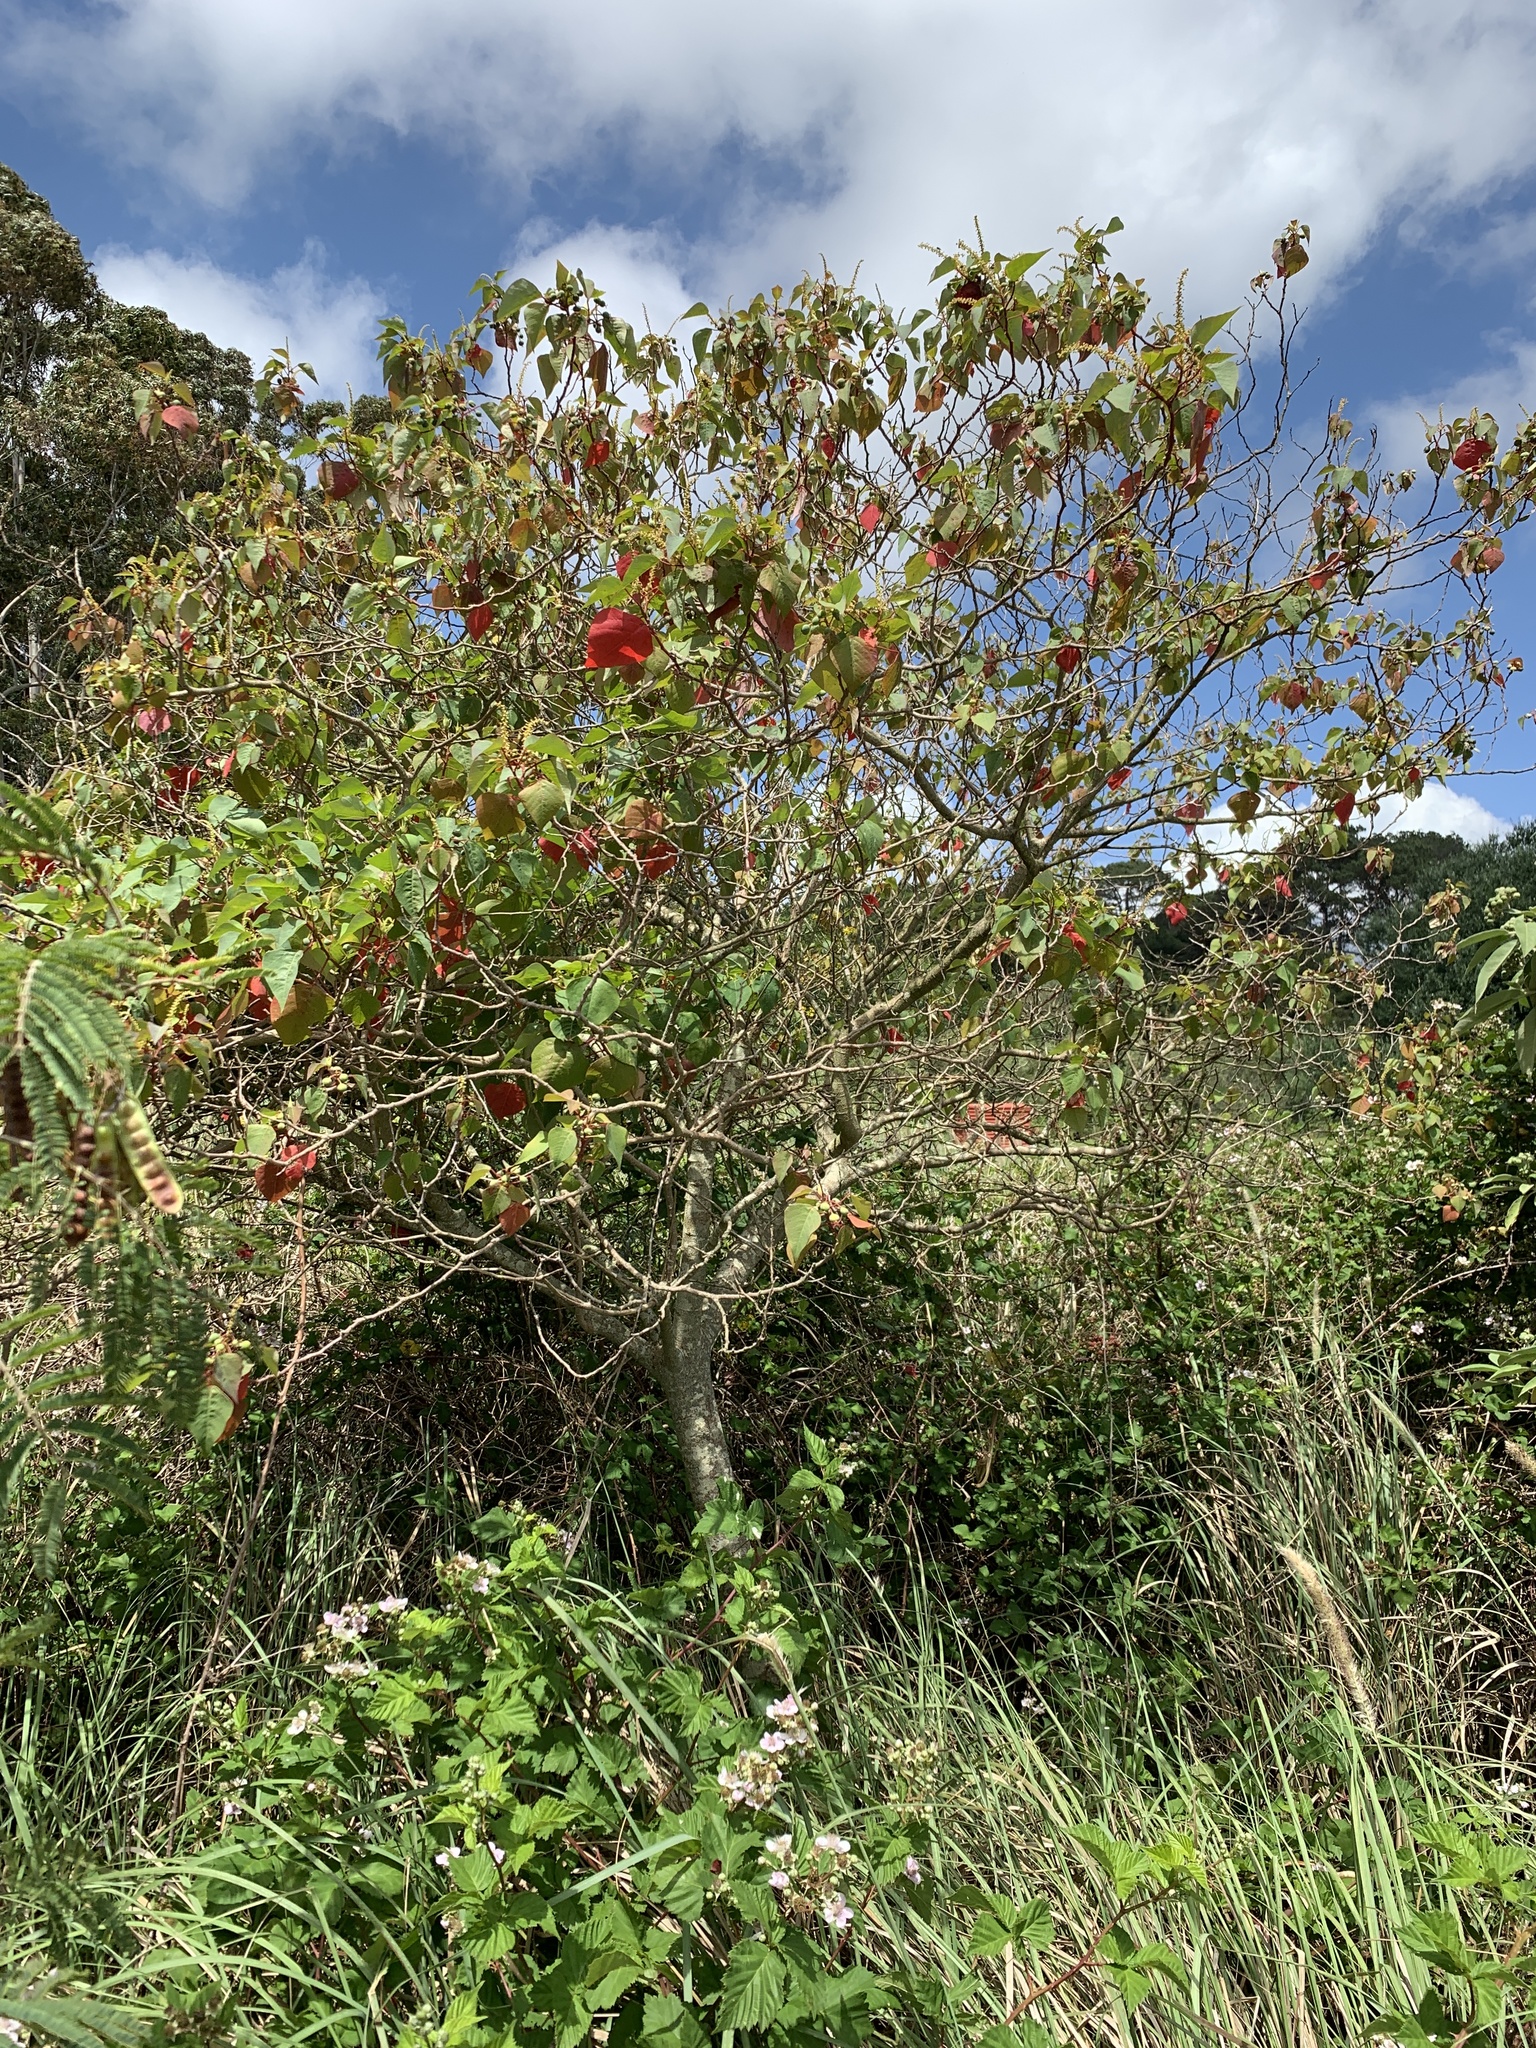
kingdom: Plantae
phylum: Tracheophyta
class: Magnoliopsida
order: Malpighiales
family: Euphorbiaceae
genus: Homalanthus
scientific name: Homalanthus populifolius
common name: Queensland poplar
